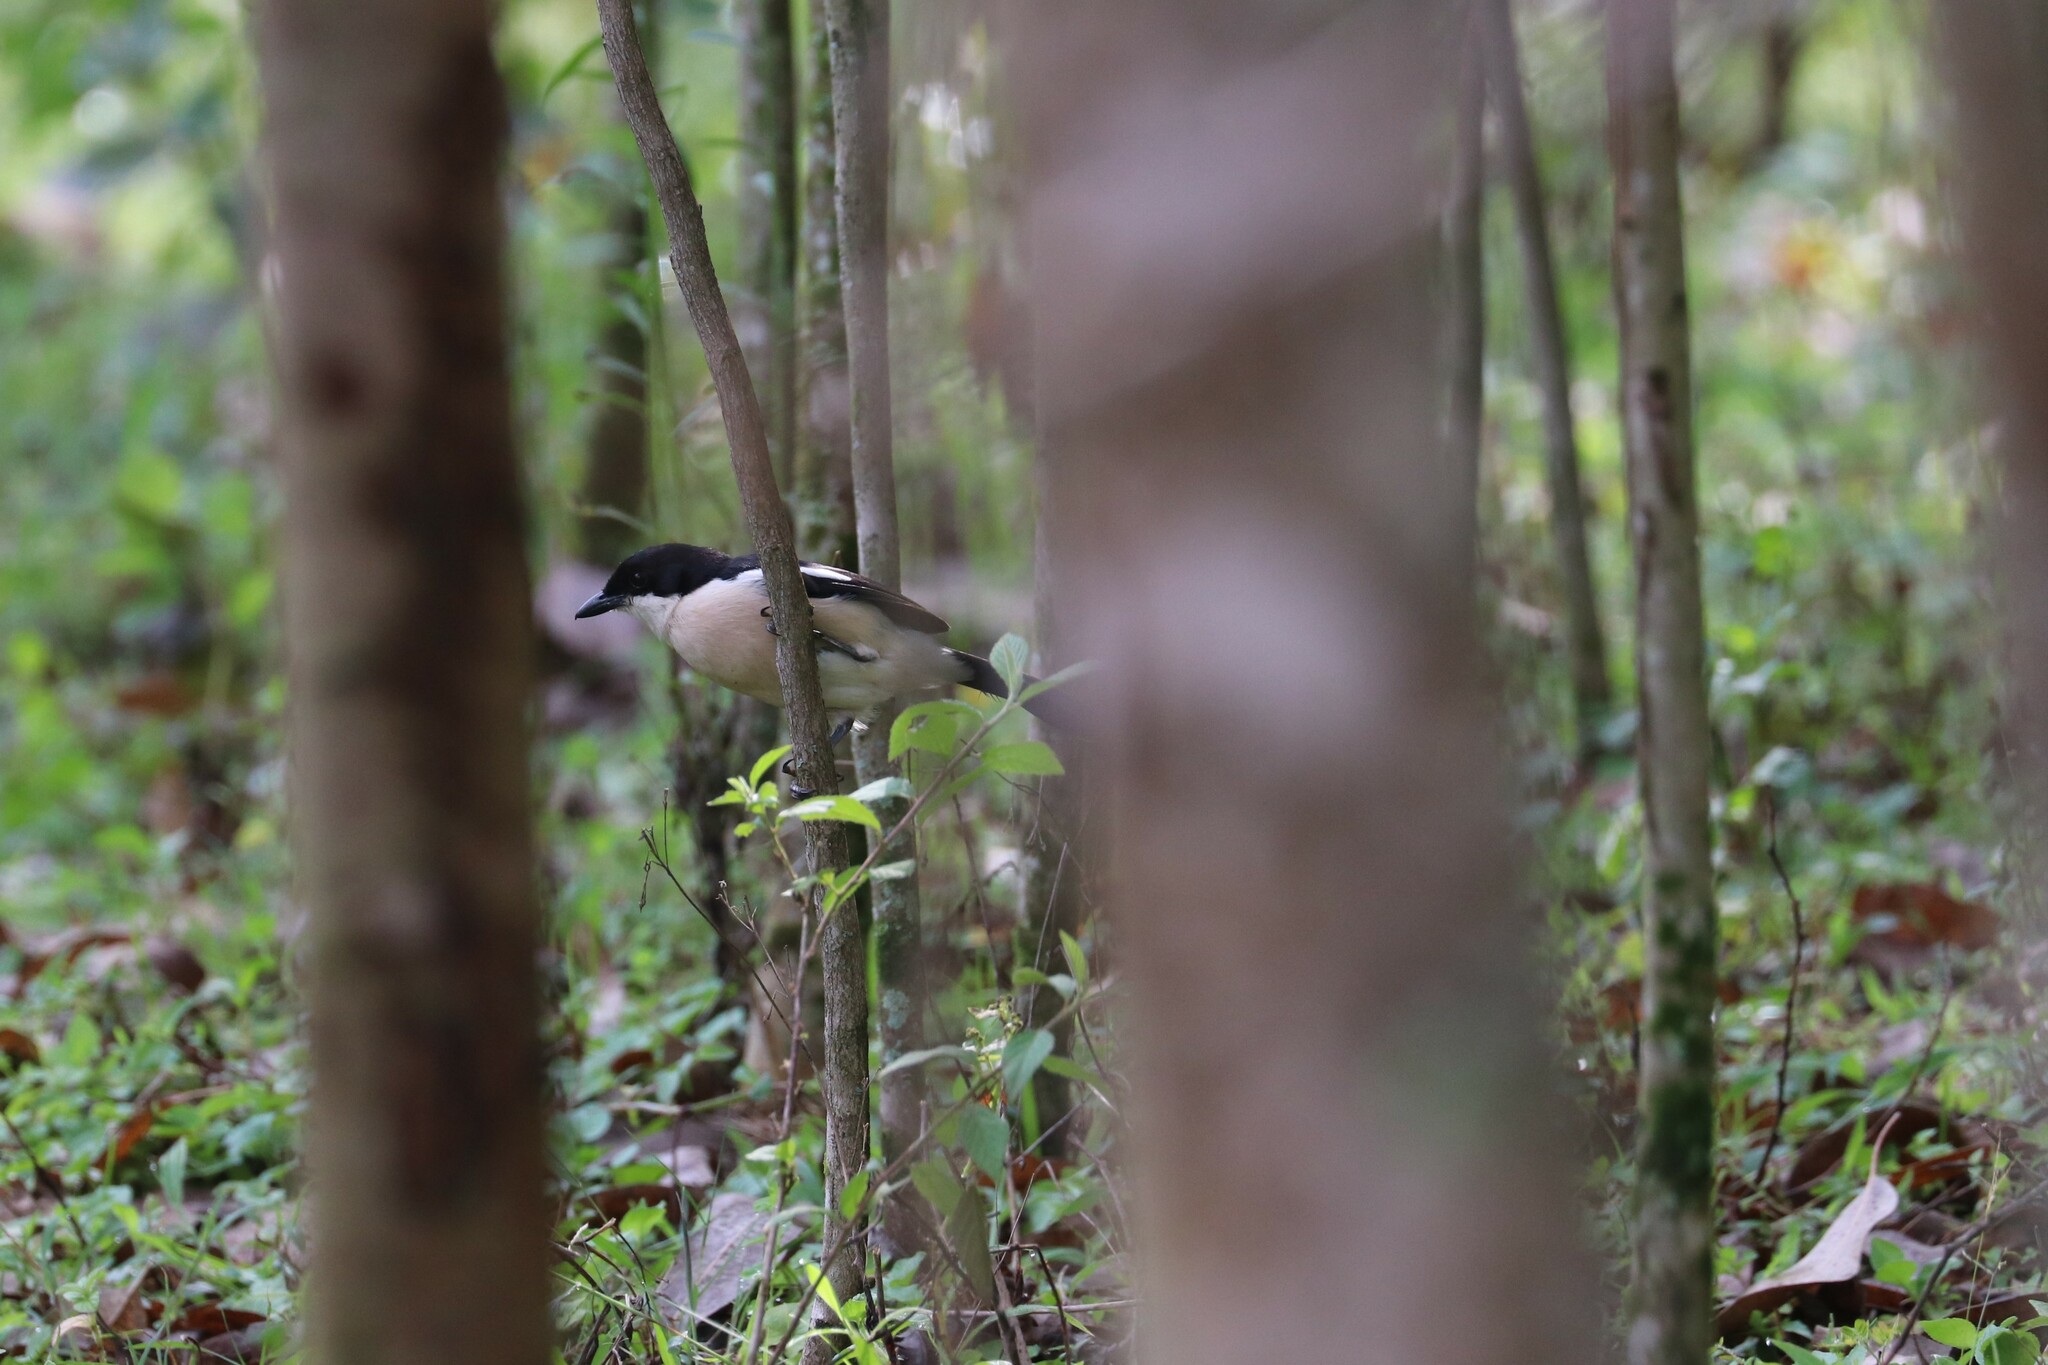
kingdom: Animalia
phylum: Chordata
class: Aves
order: Passeriformes
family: Malaconotidae
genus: Laniarius
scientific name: Laniarius aethiopicus
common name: Ethiopian boubou
